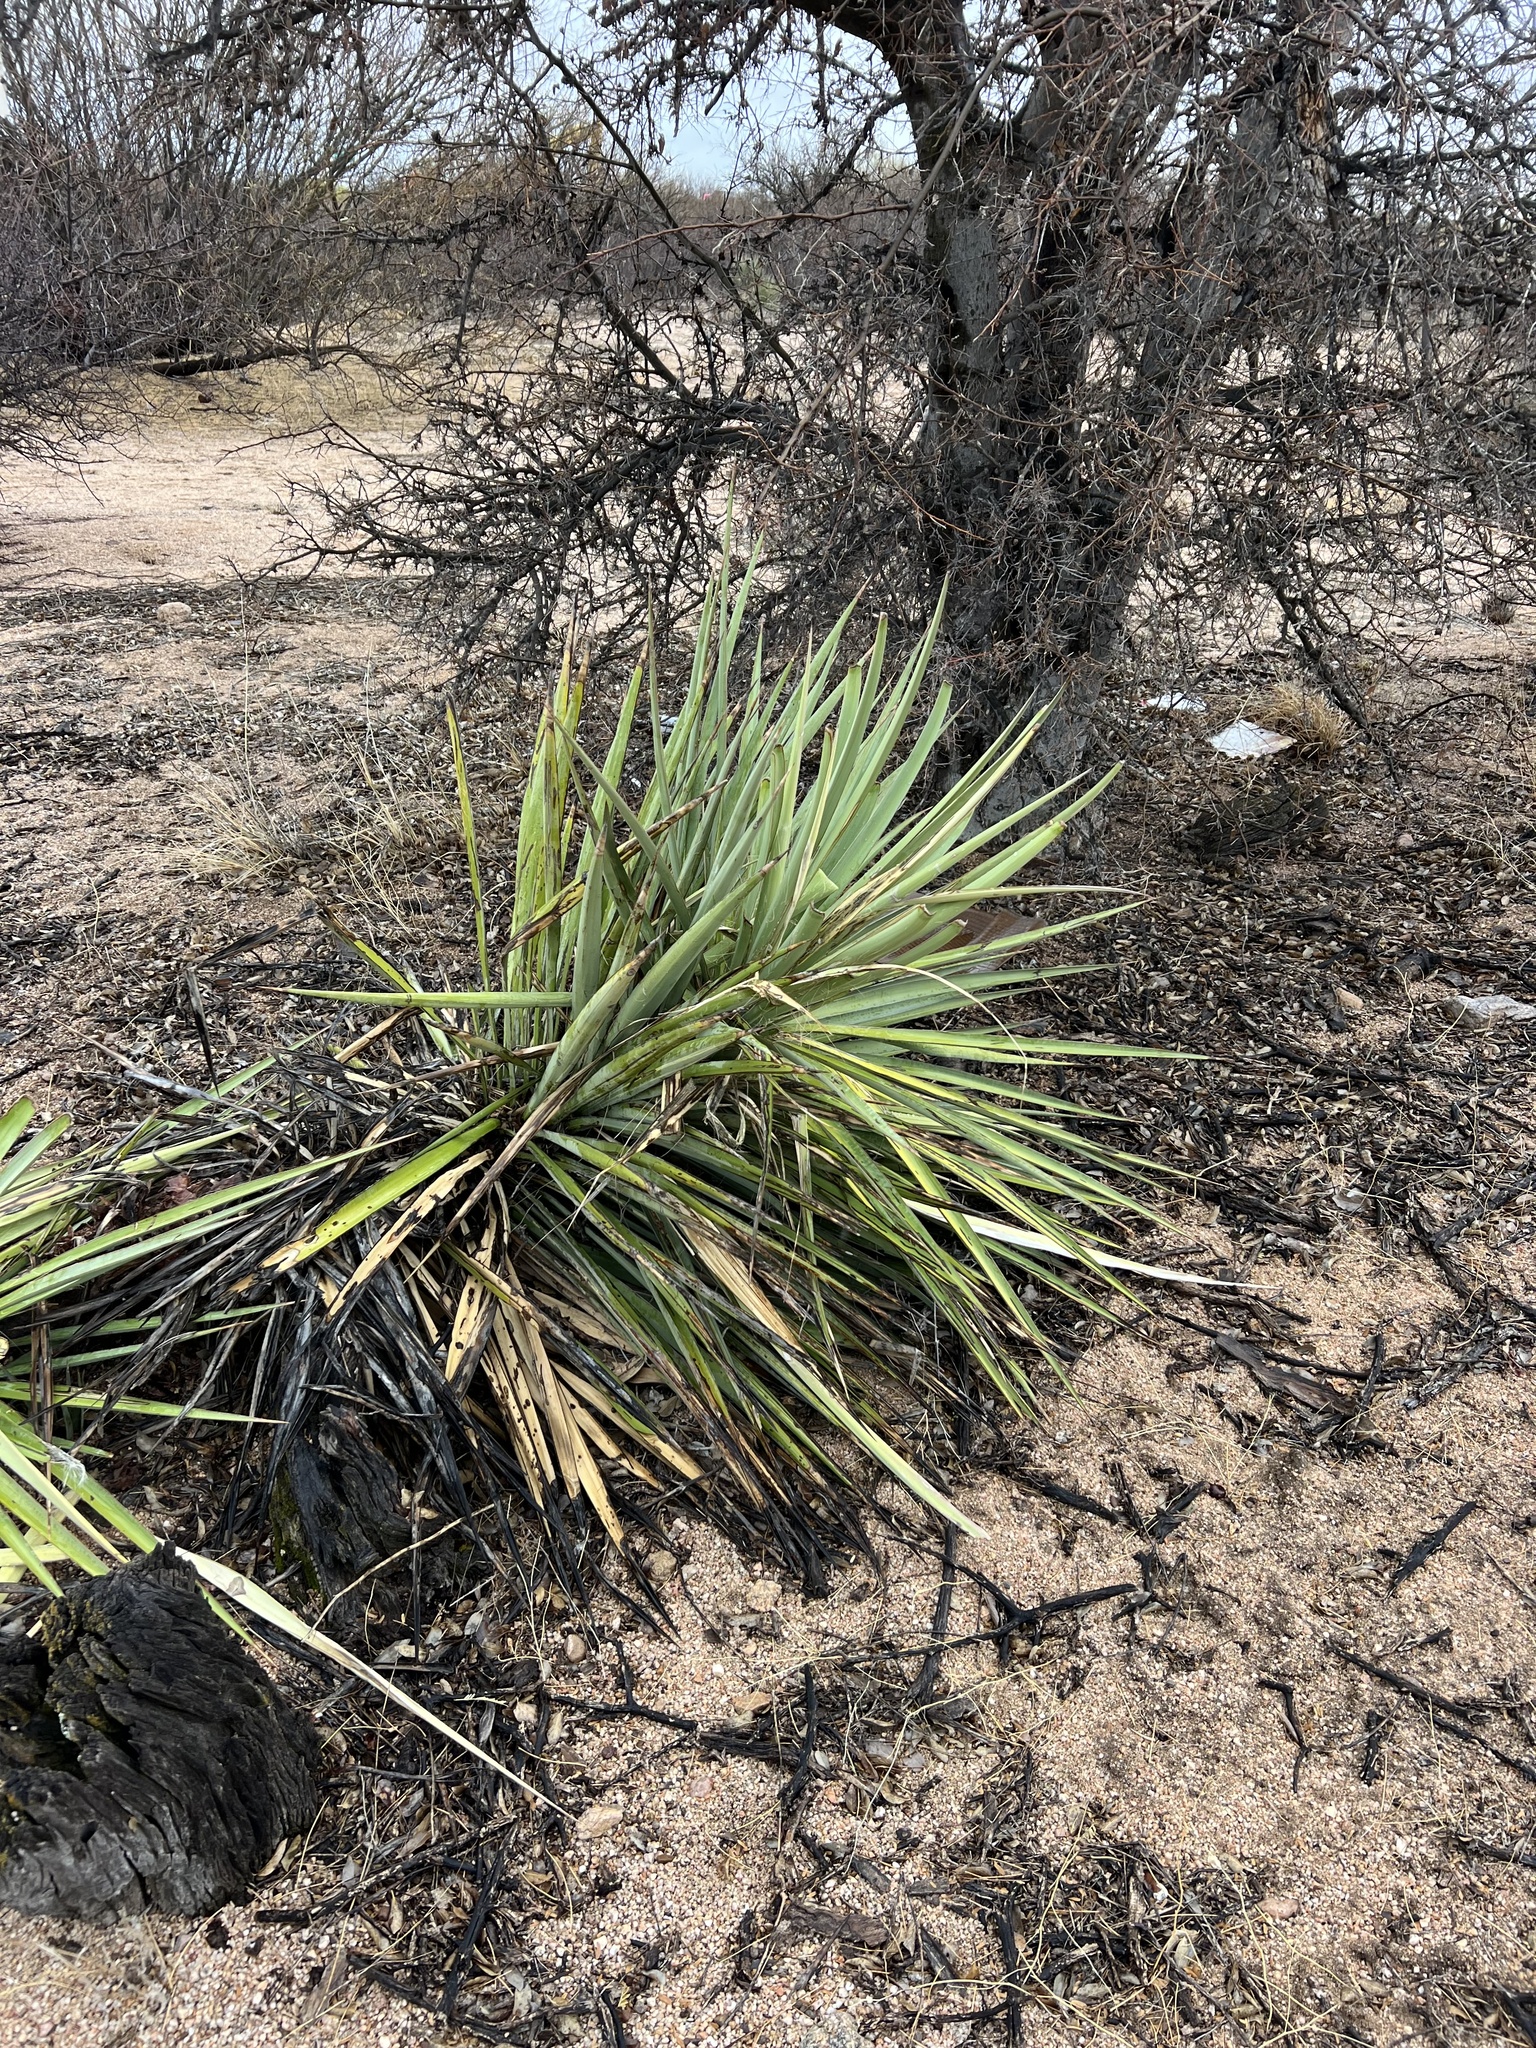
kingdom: Plantae
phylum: Tracheophyta
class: Liliopsida
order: Asparagales
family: Asparagaceae
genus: Yucca
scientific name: Yucca baccata
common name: Banana yucca
